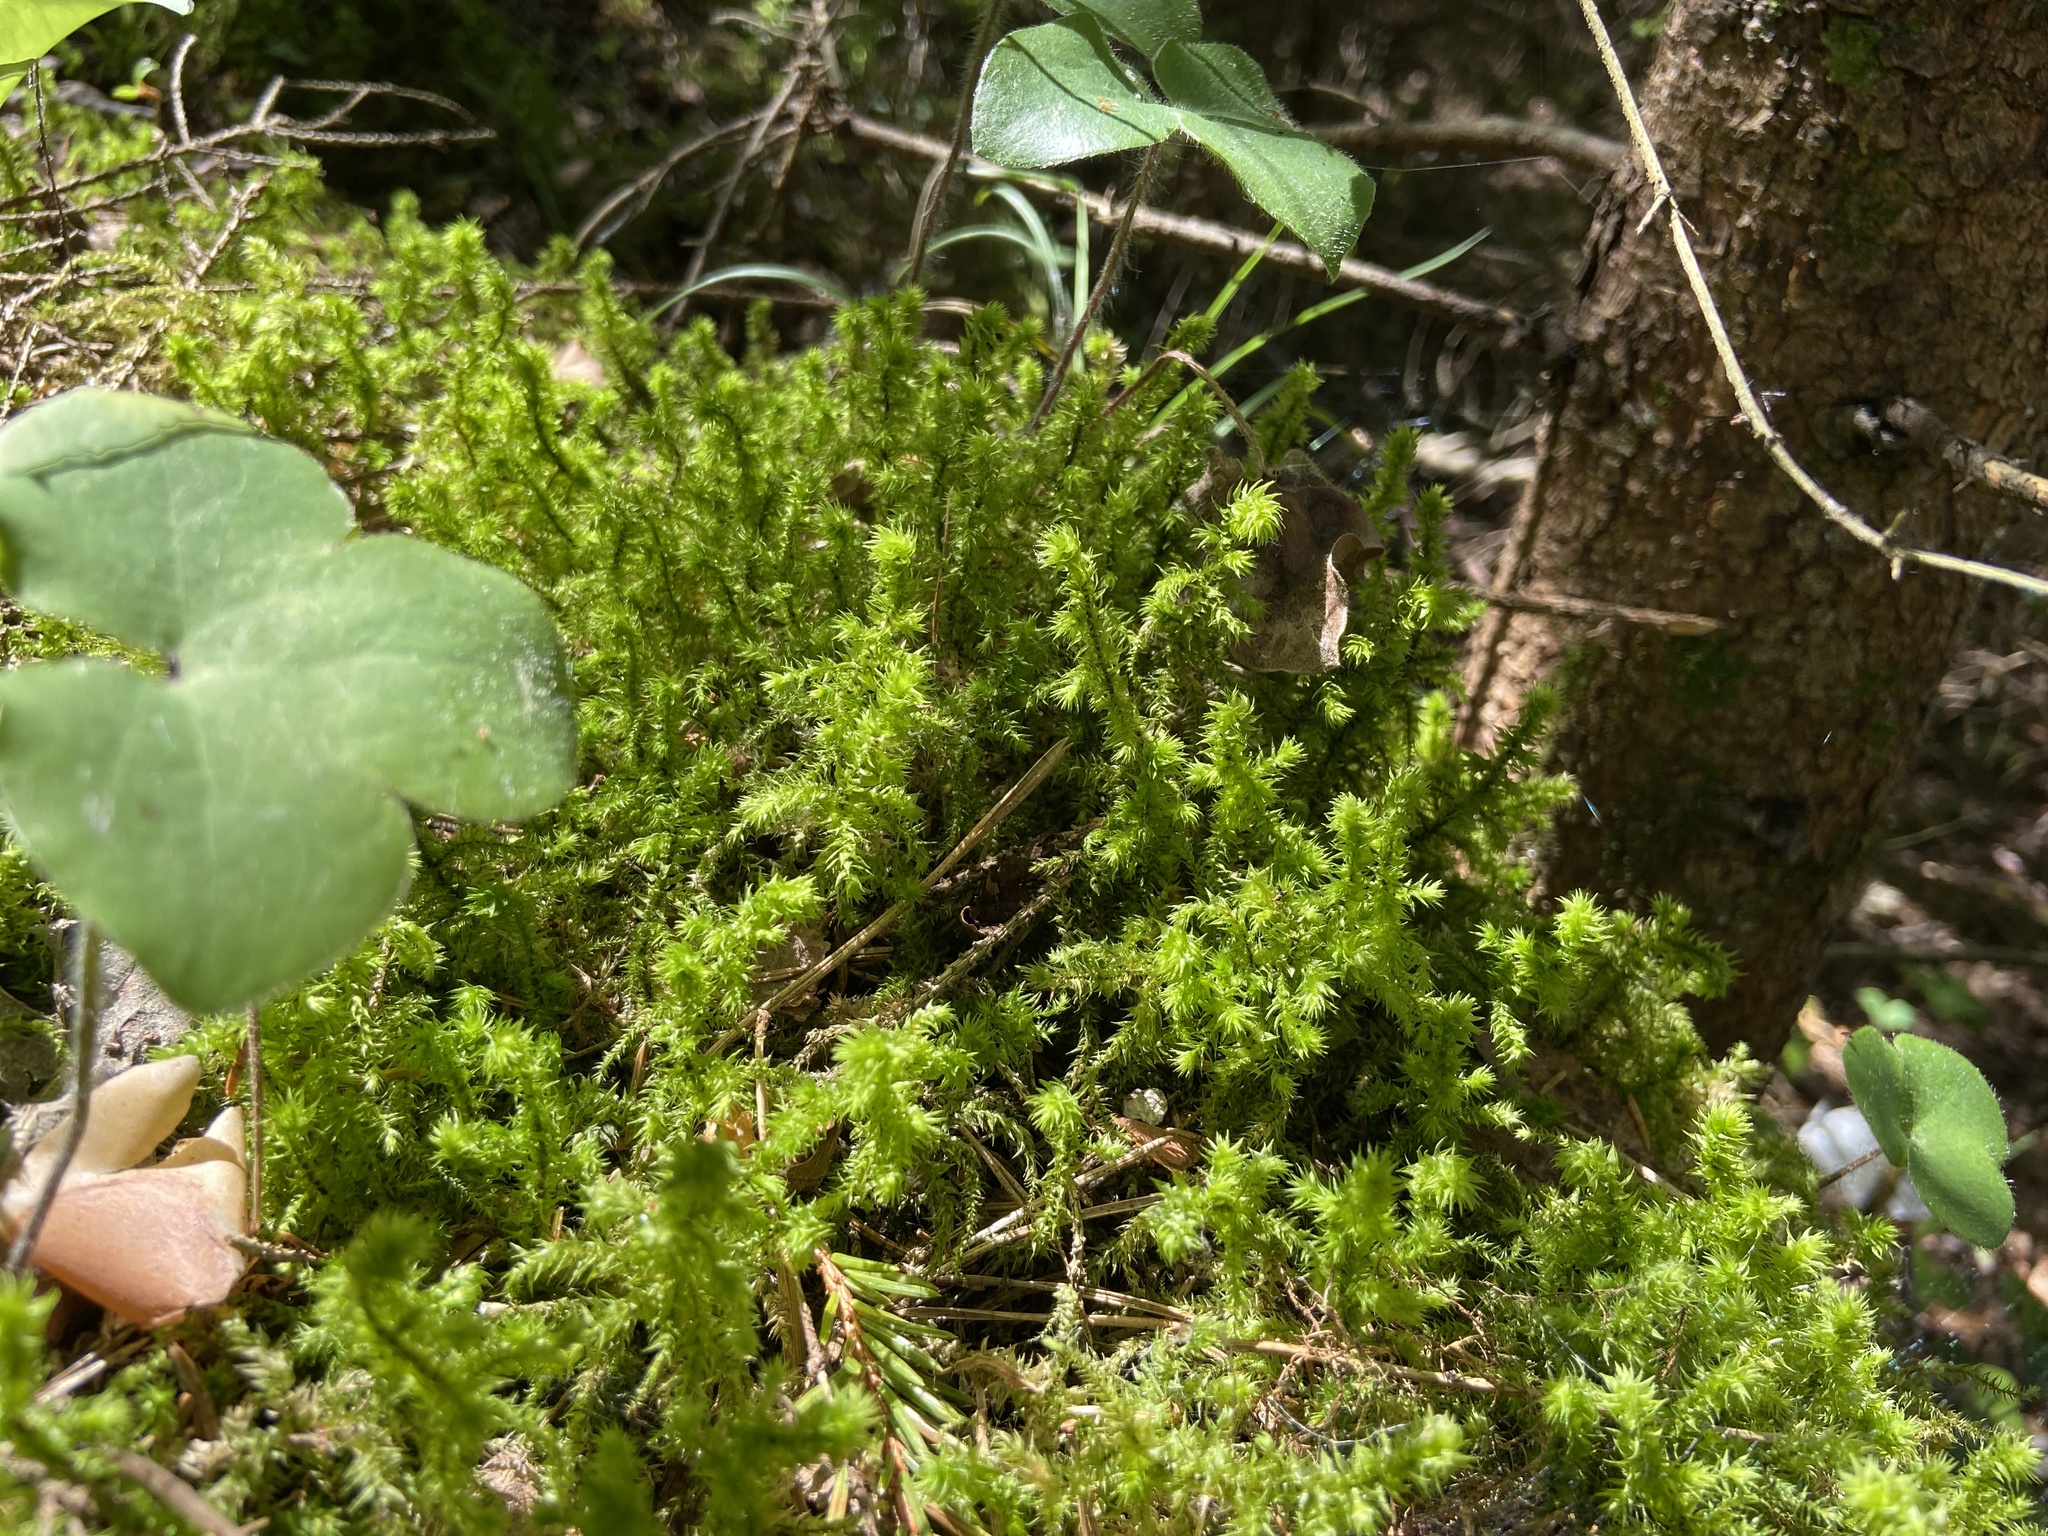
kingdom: Plantae
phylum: Bryophyta
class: Bryopsida
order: Hypnales
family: Hylocomiaceae
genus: Hylocomiadelphus
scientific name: Hylocomiadelphus triquetrus
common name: Rough goose neck moss
